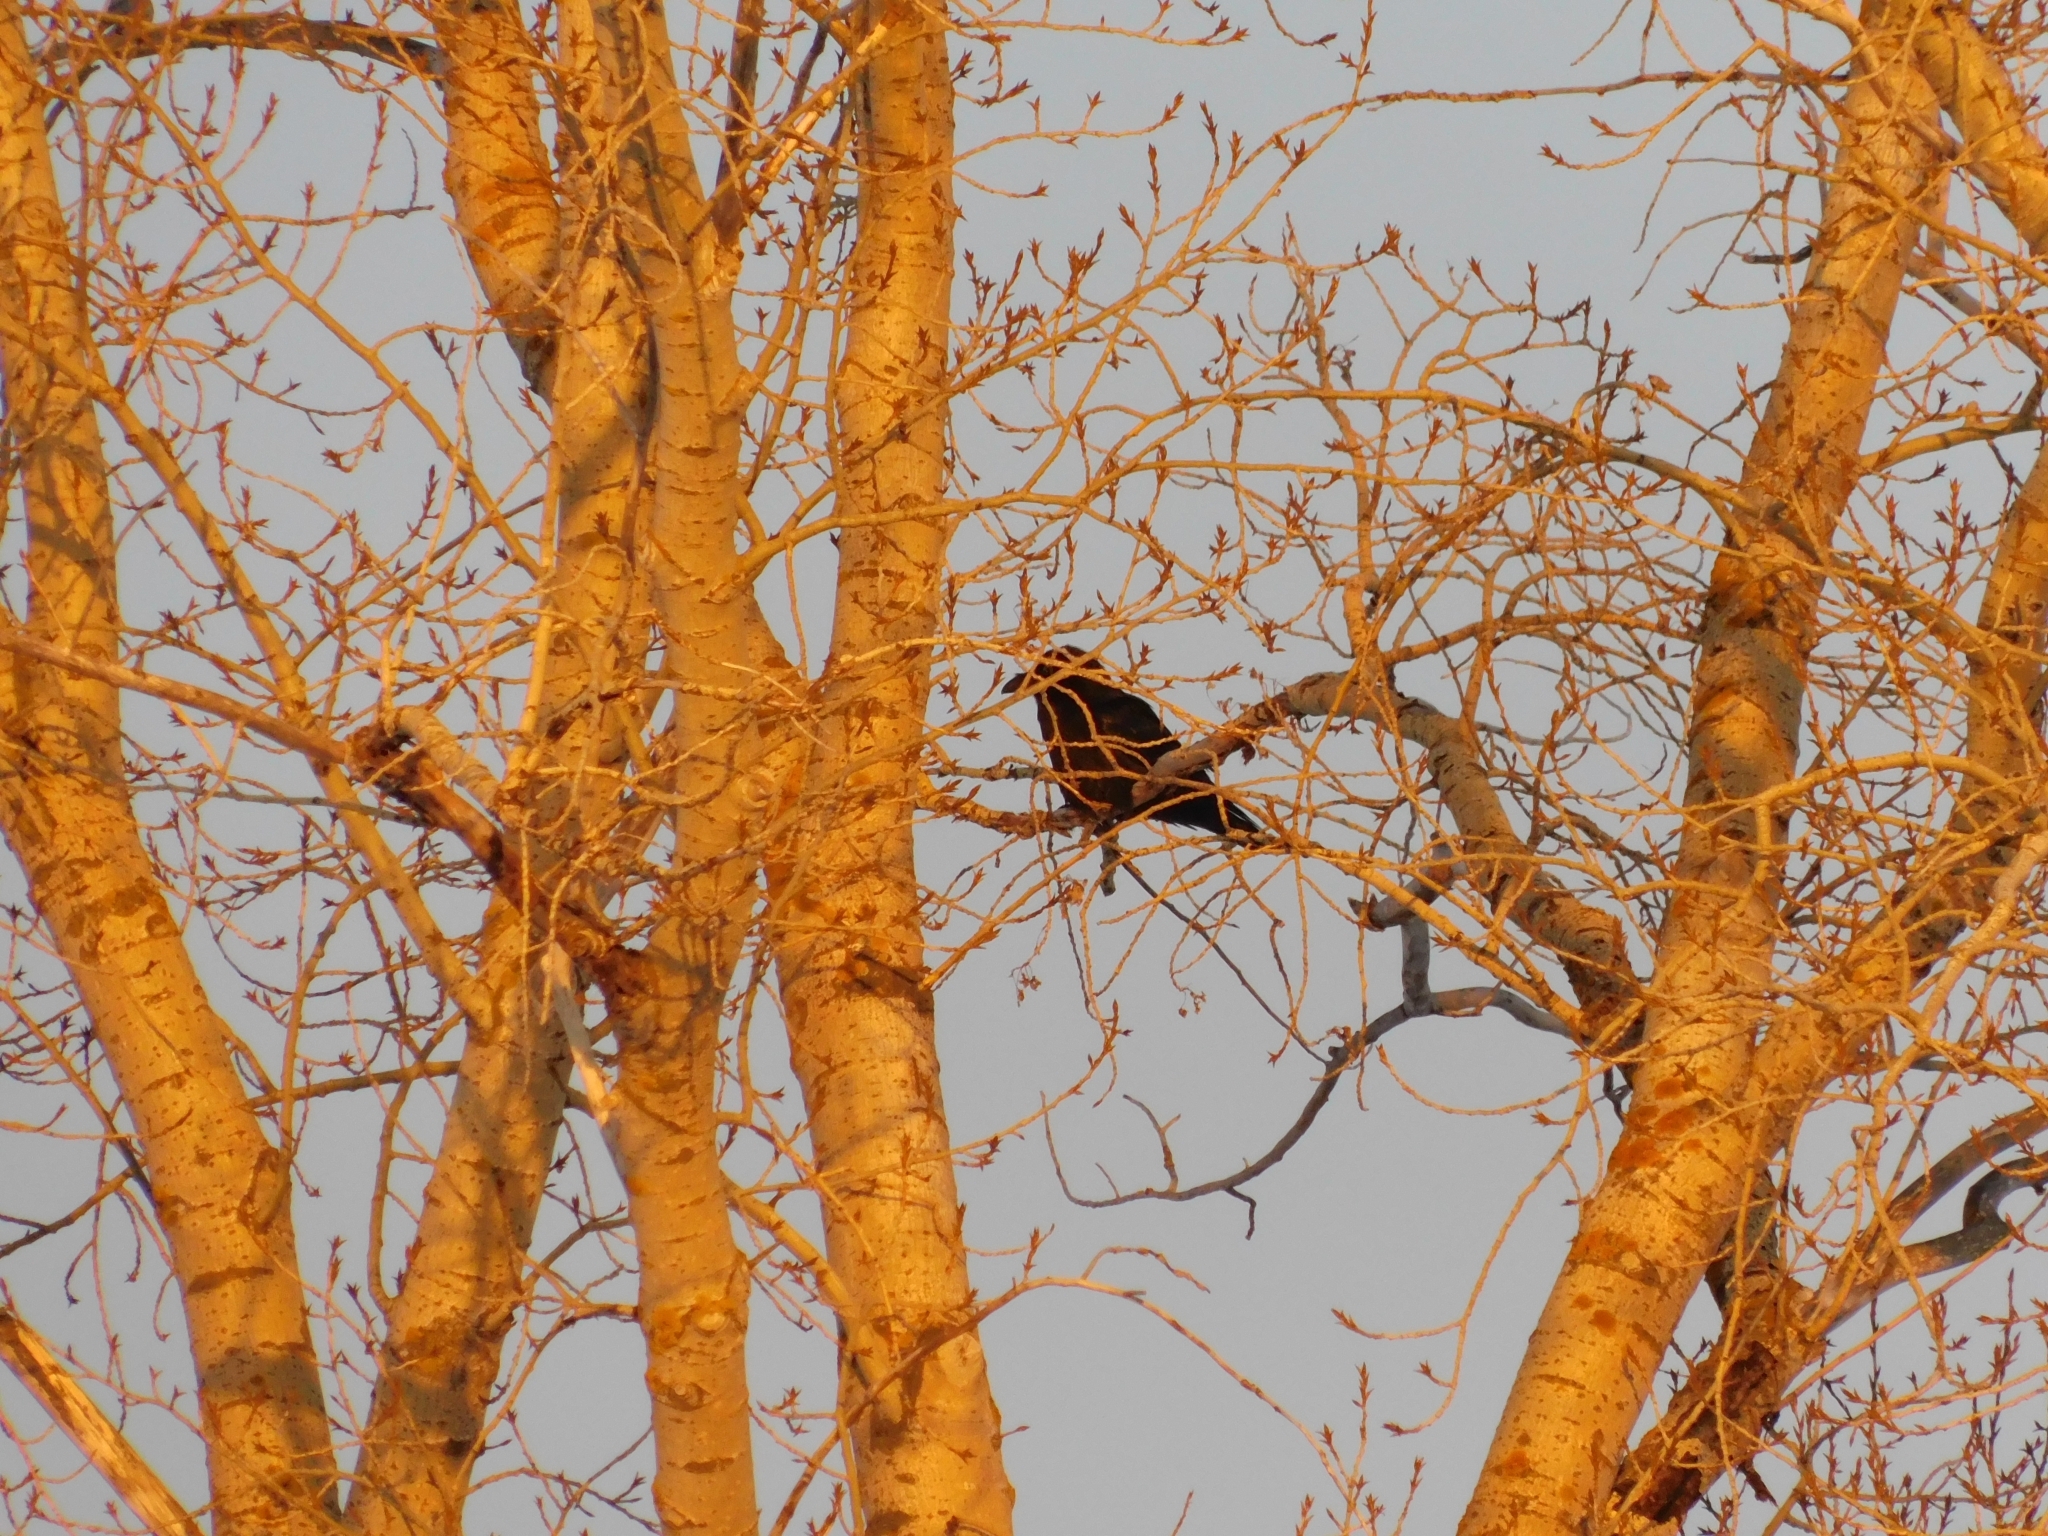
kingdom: Animalia
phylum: Chordata
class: Aves
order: Passeriformes
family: Corvidae
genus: Corvus
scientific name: Corvus corax
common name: Common raven
